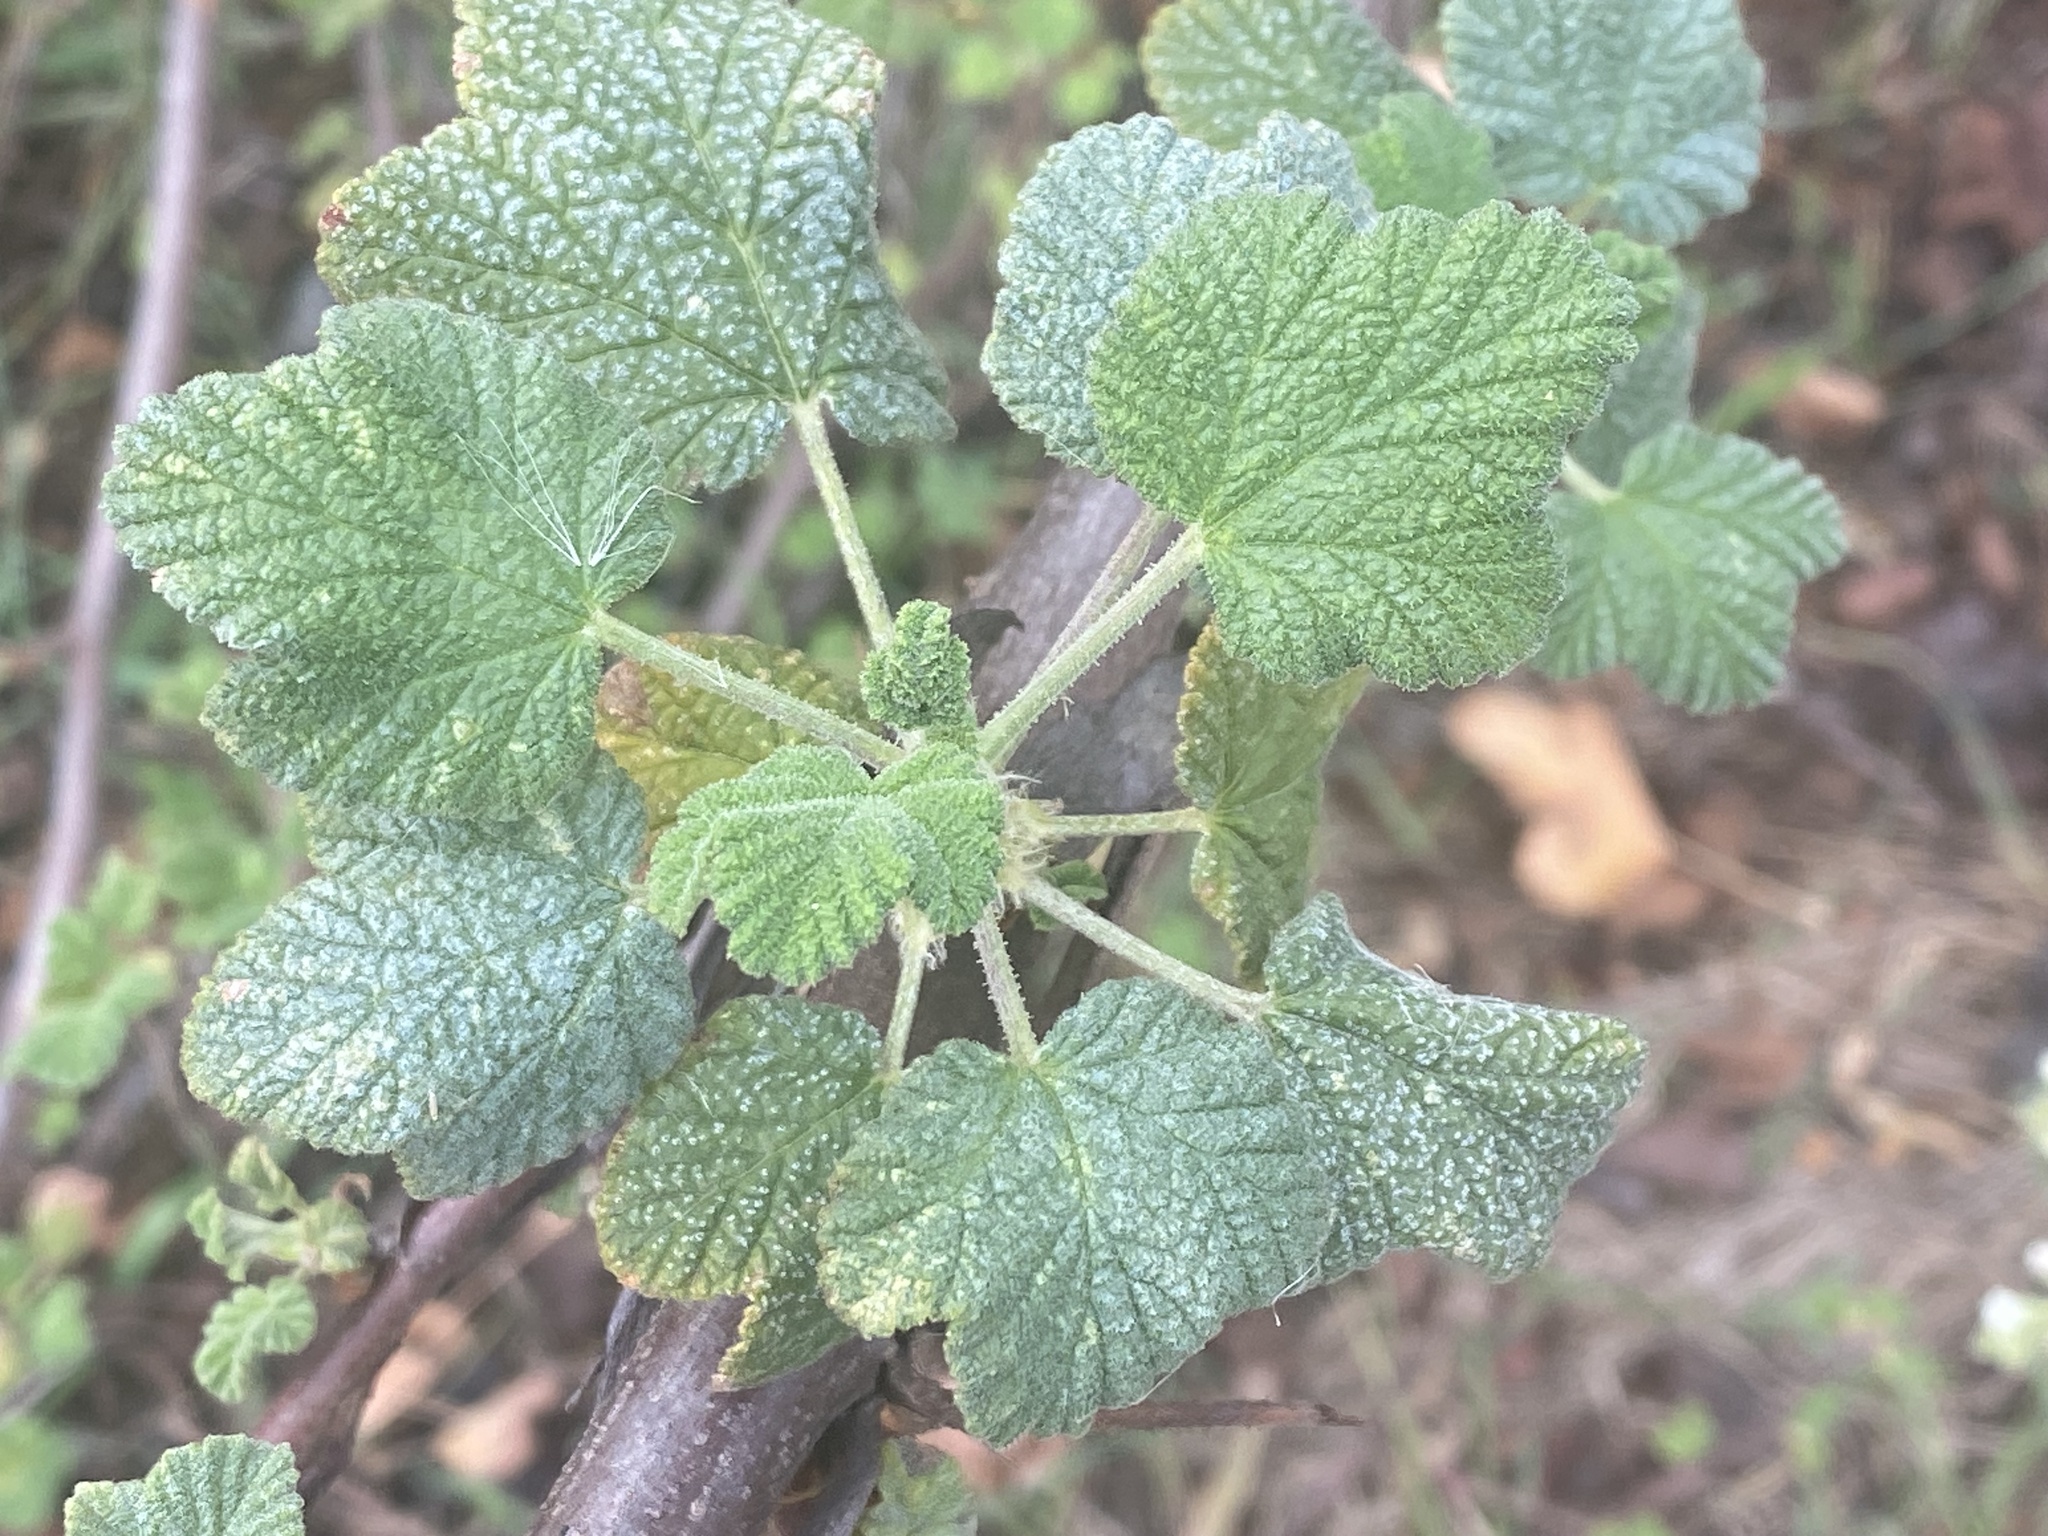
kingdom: Plantae
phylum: Tracheophyta
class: Magnoliopsida
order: Saxifragales
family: Grossulariaceae
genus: Ribes
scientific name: Ribes indecorum
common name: White-flower currant
